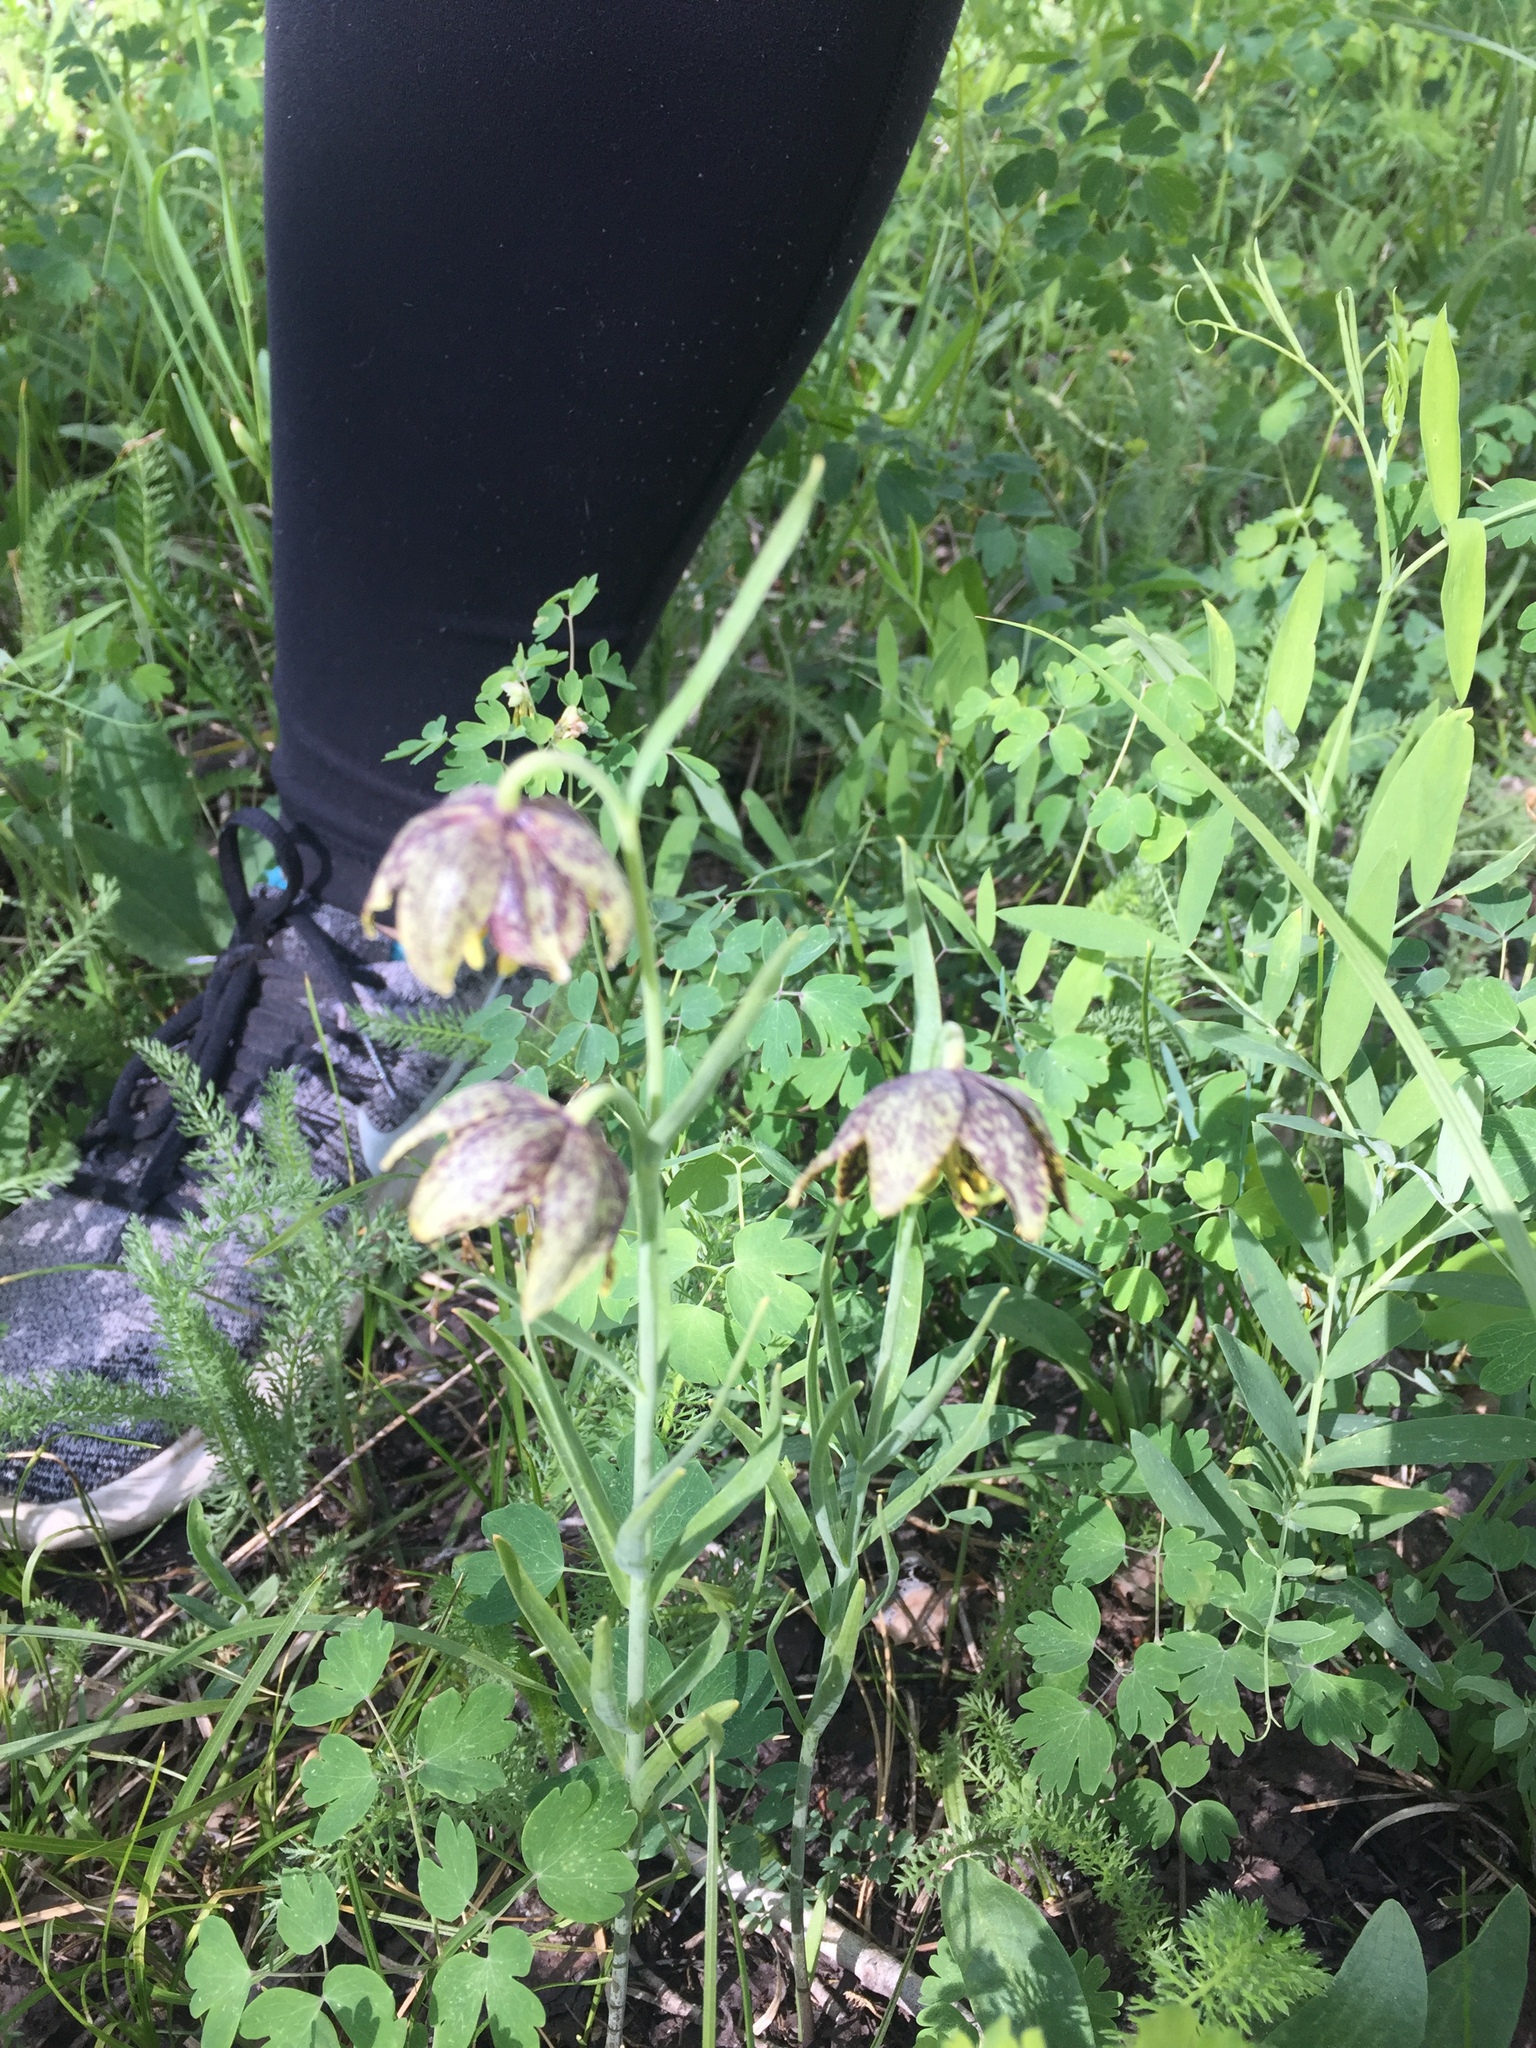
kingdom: Plantae
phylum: Tracheophyta
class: Liliopsida
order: Liliales
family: Liliaceae
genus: Fritillaria
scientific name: Fritillaria atropurpurea
